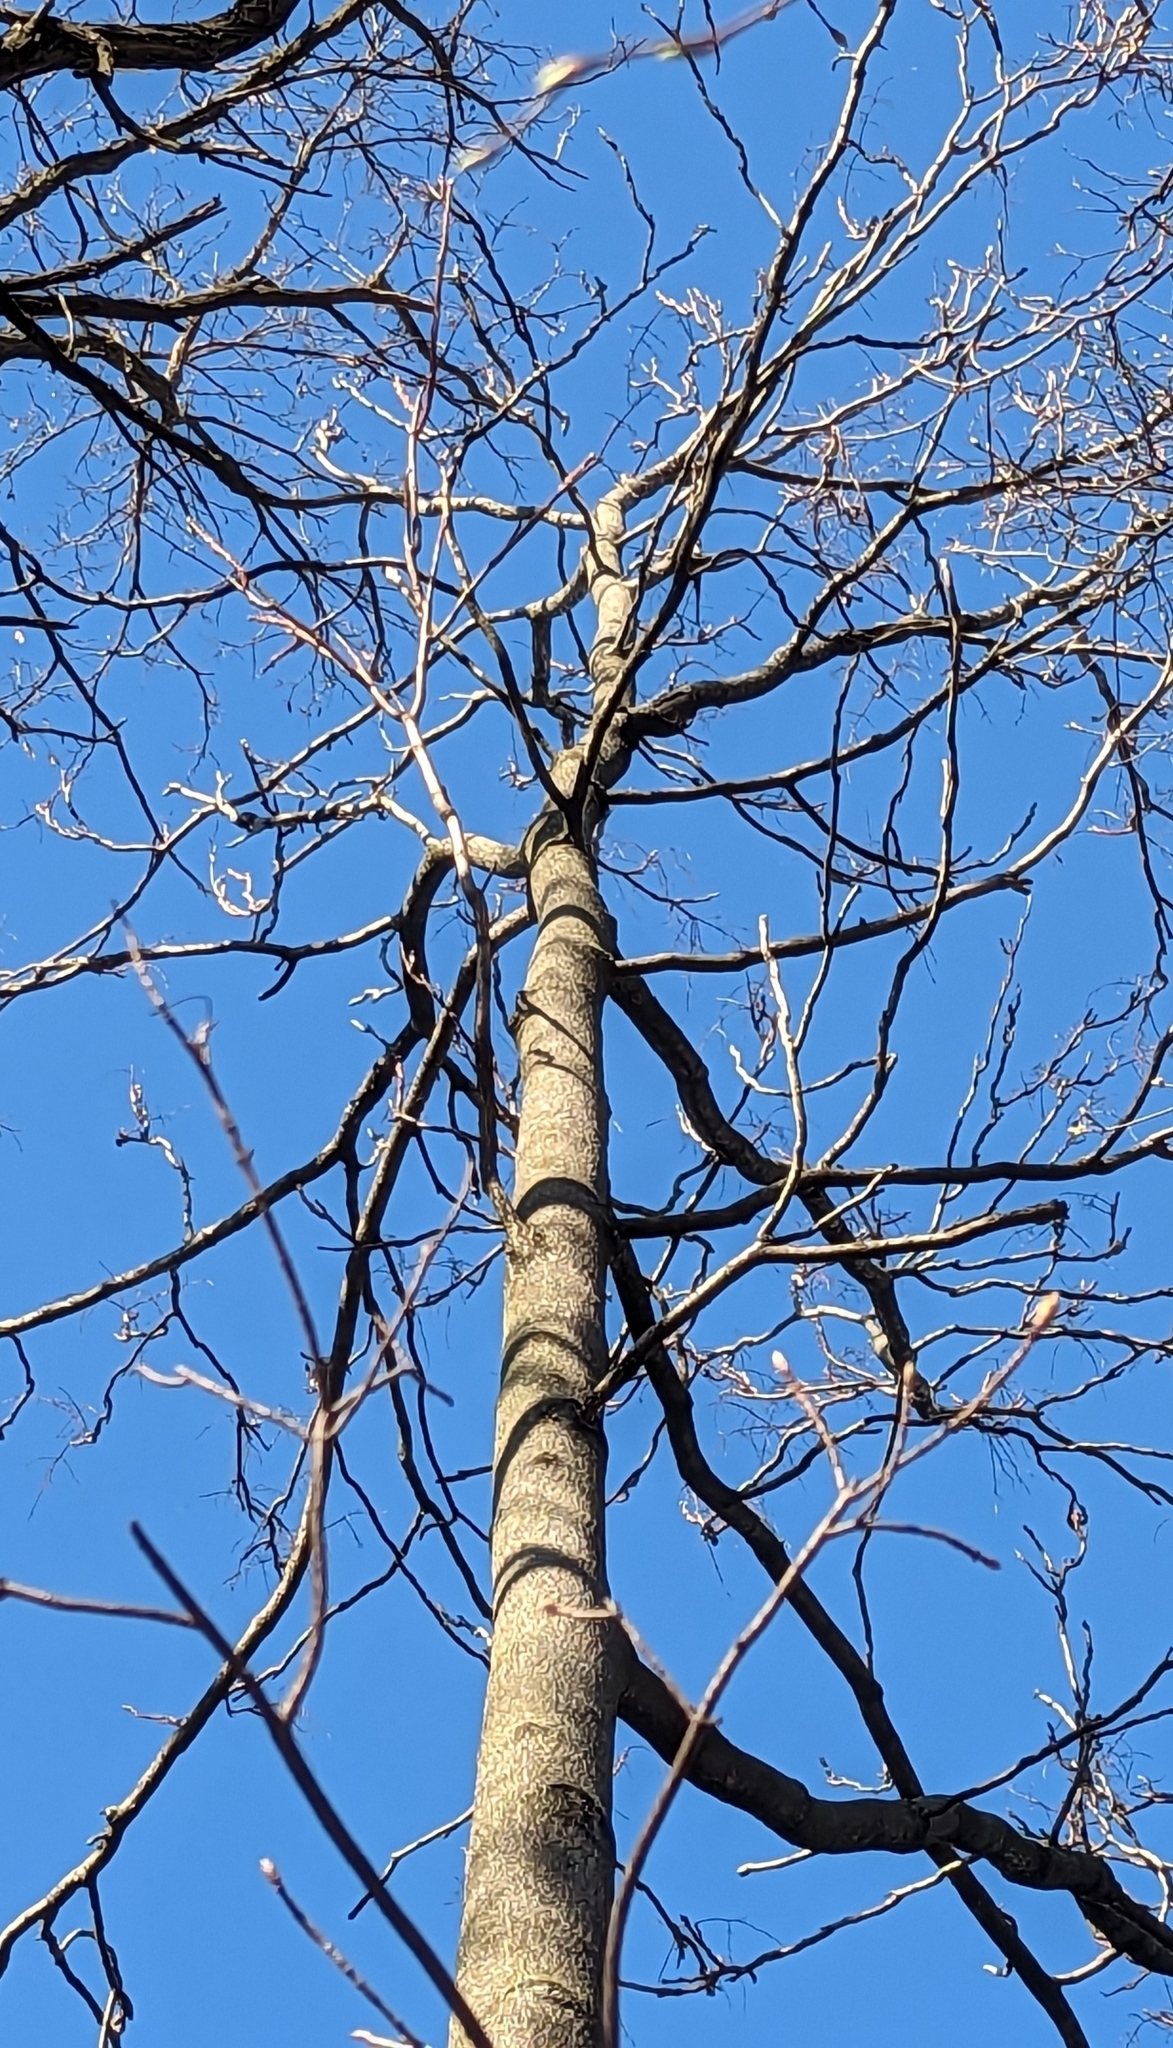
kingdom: Plantae
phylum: Tracheophyta
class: Magnoliopsida
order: Sapindales
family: Simaroubaceae
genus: Ailanthus
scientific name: Ailanthus altissima
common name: Tree-of-heaven
